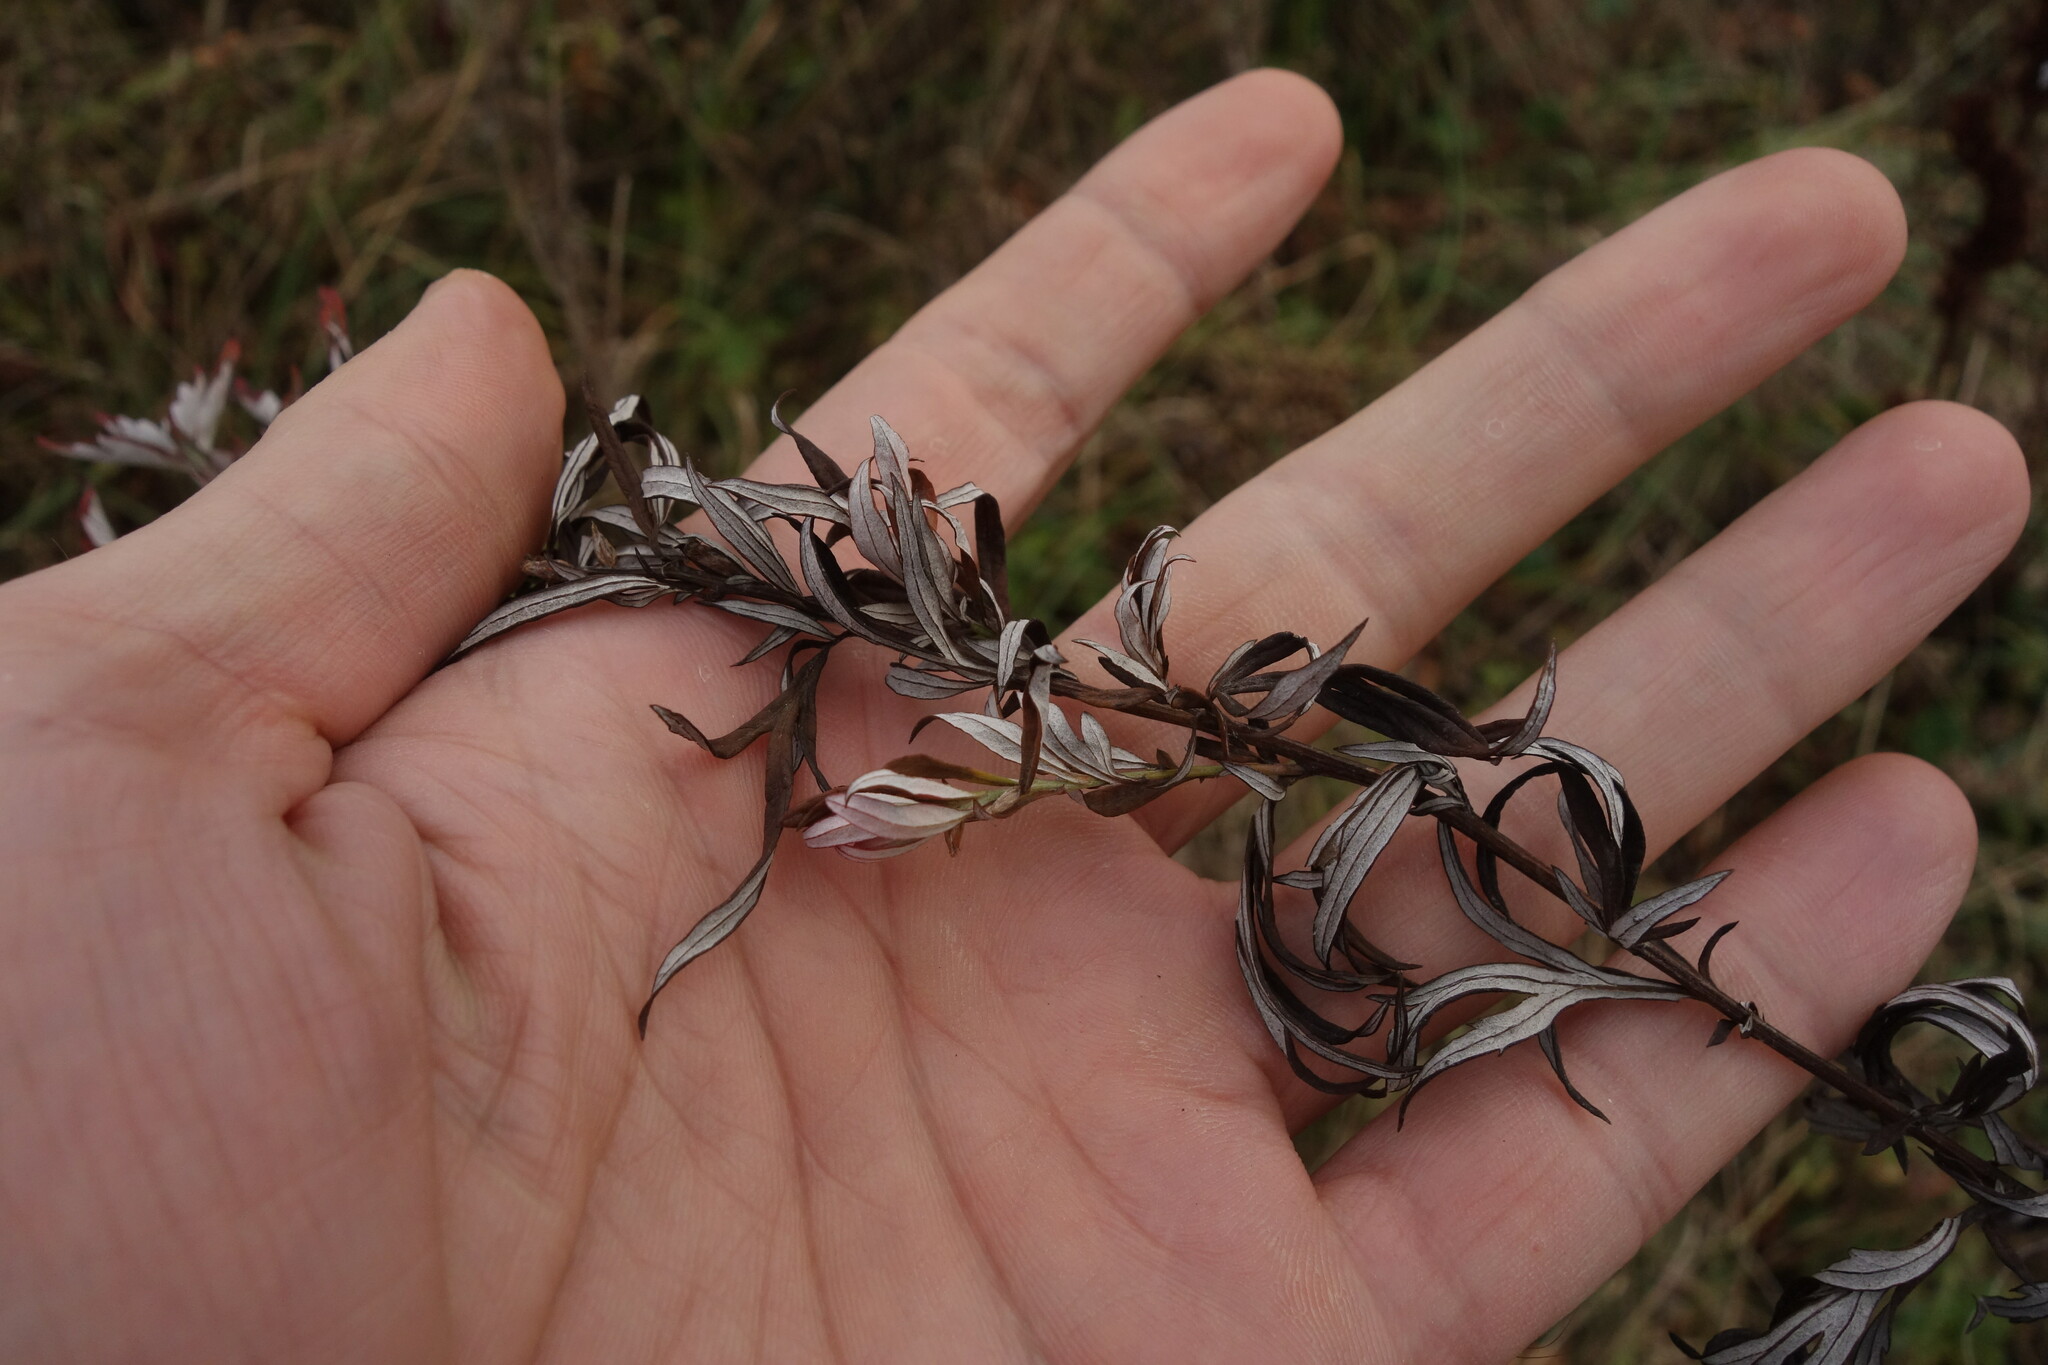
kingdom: Plantae
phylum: Tracheophyta
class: Magnoliopsida
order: Asterales
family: Asteraceae
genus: Artemisia
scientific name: Artemisia vulgaris
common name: Mugwort
